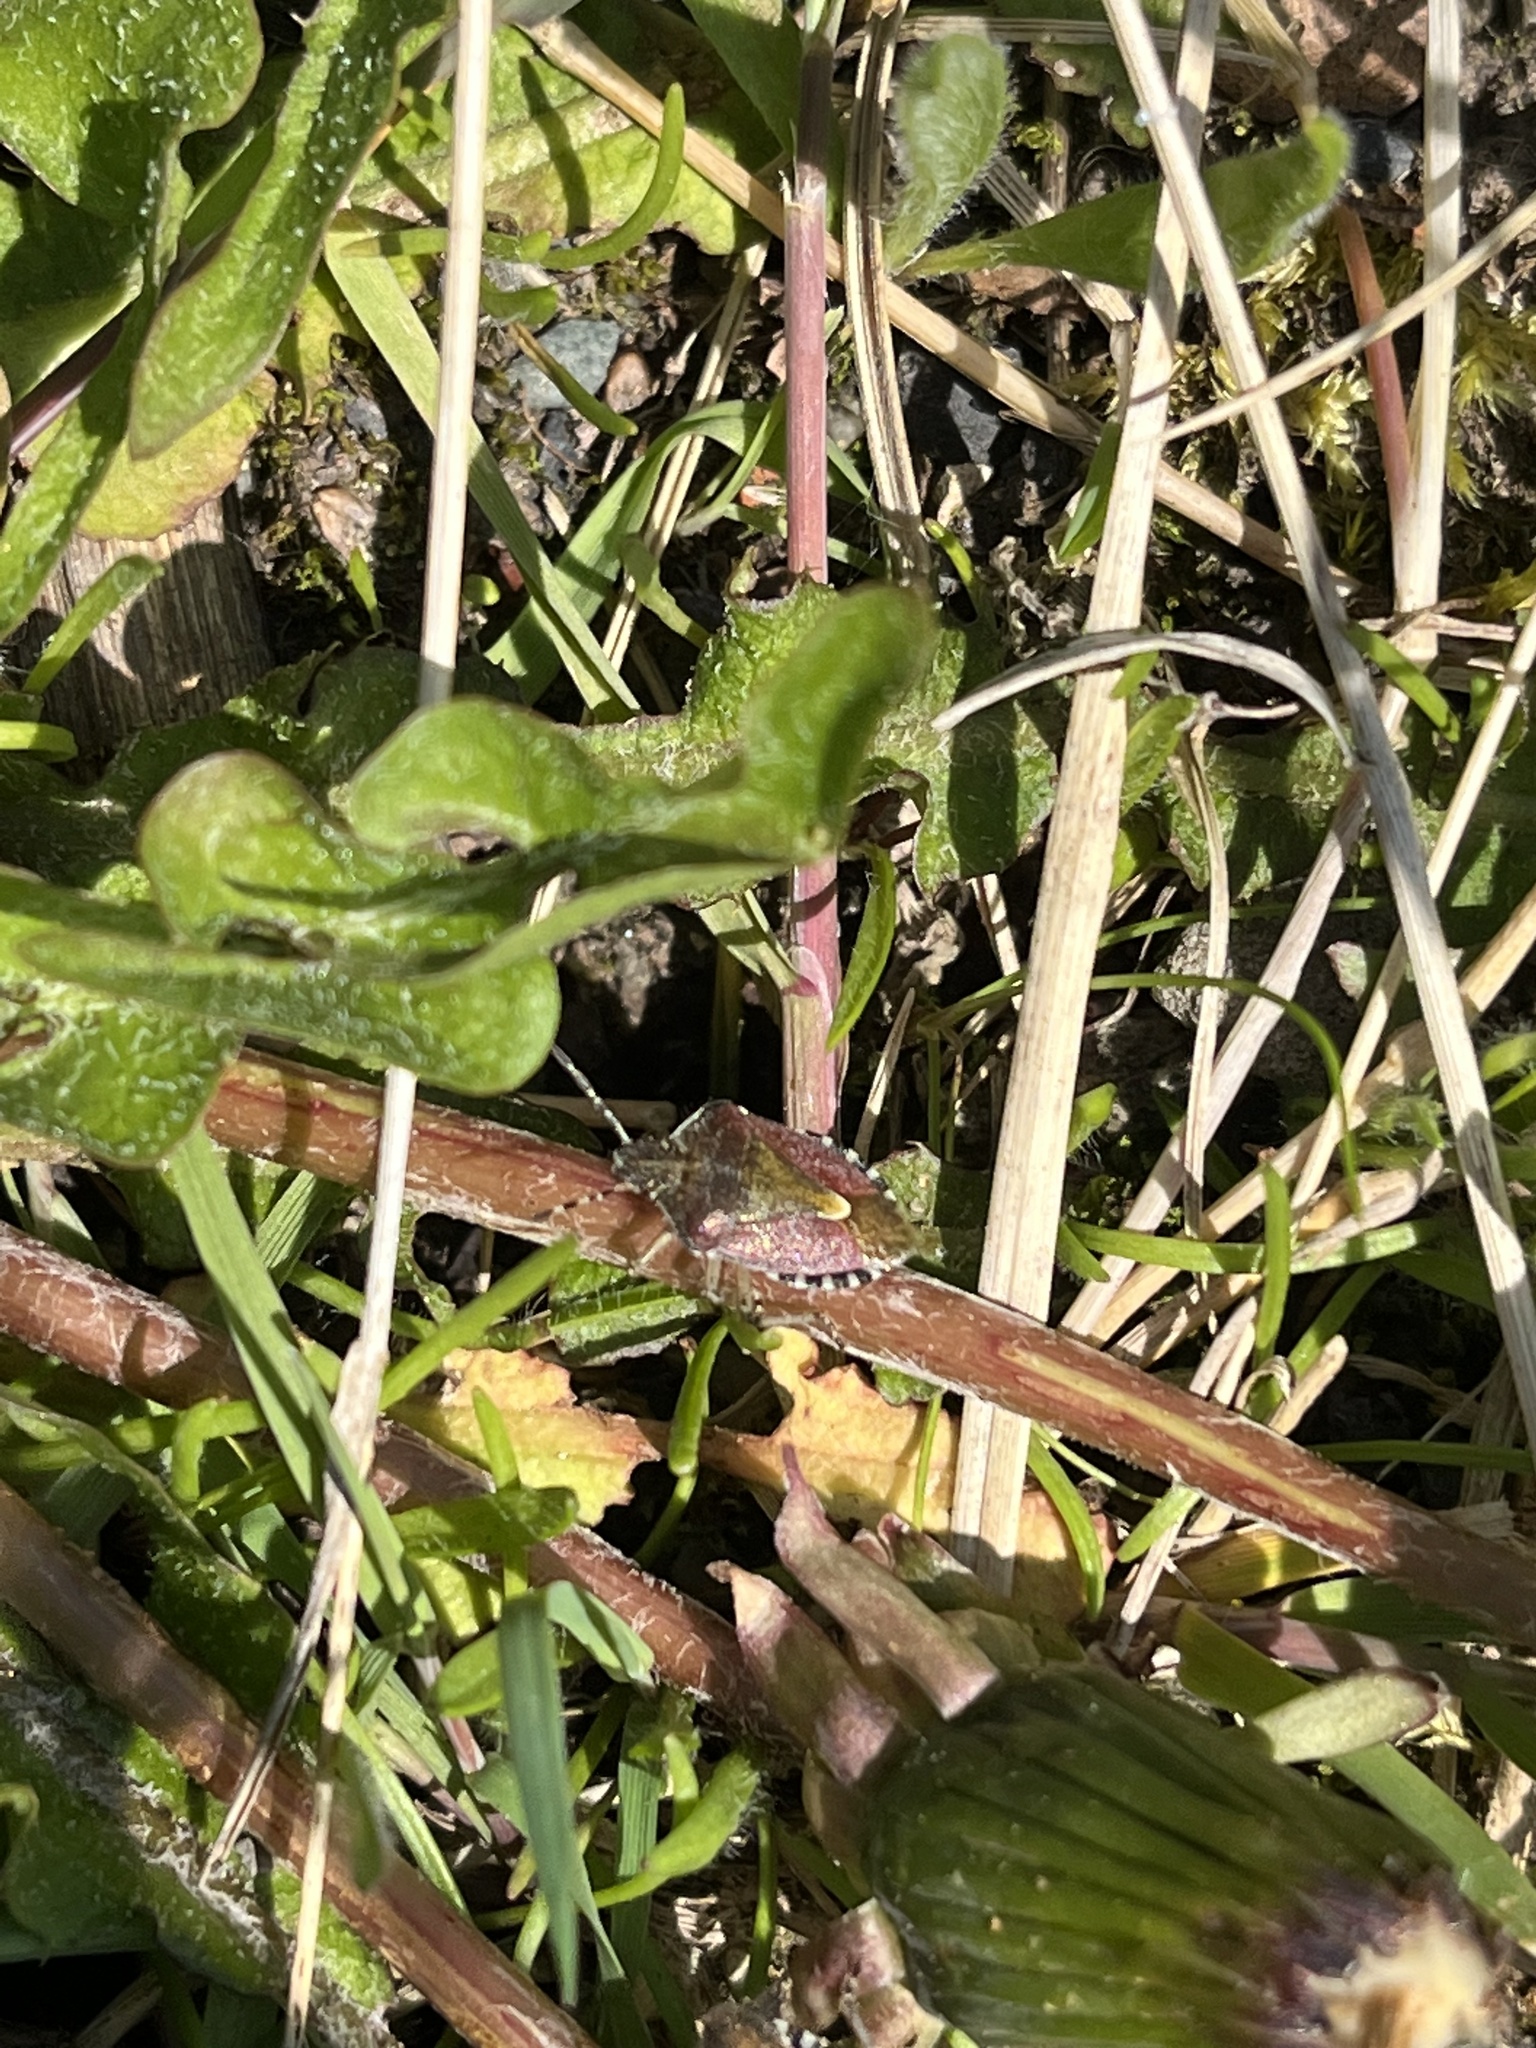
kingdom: Animalia
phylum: Arthropoda
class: Insecta
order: Hemiptera
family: Pentatomidae
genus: Dolycoris
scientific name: Dolycoris baccarum
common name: Sloe bug
